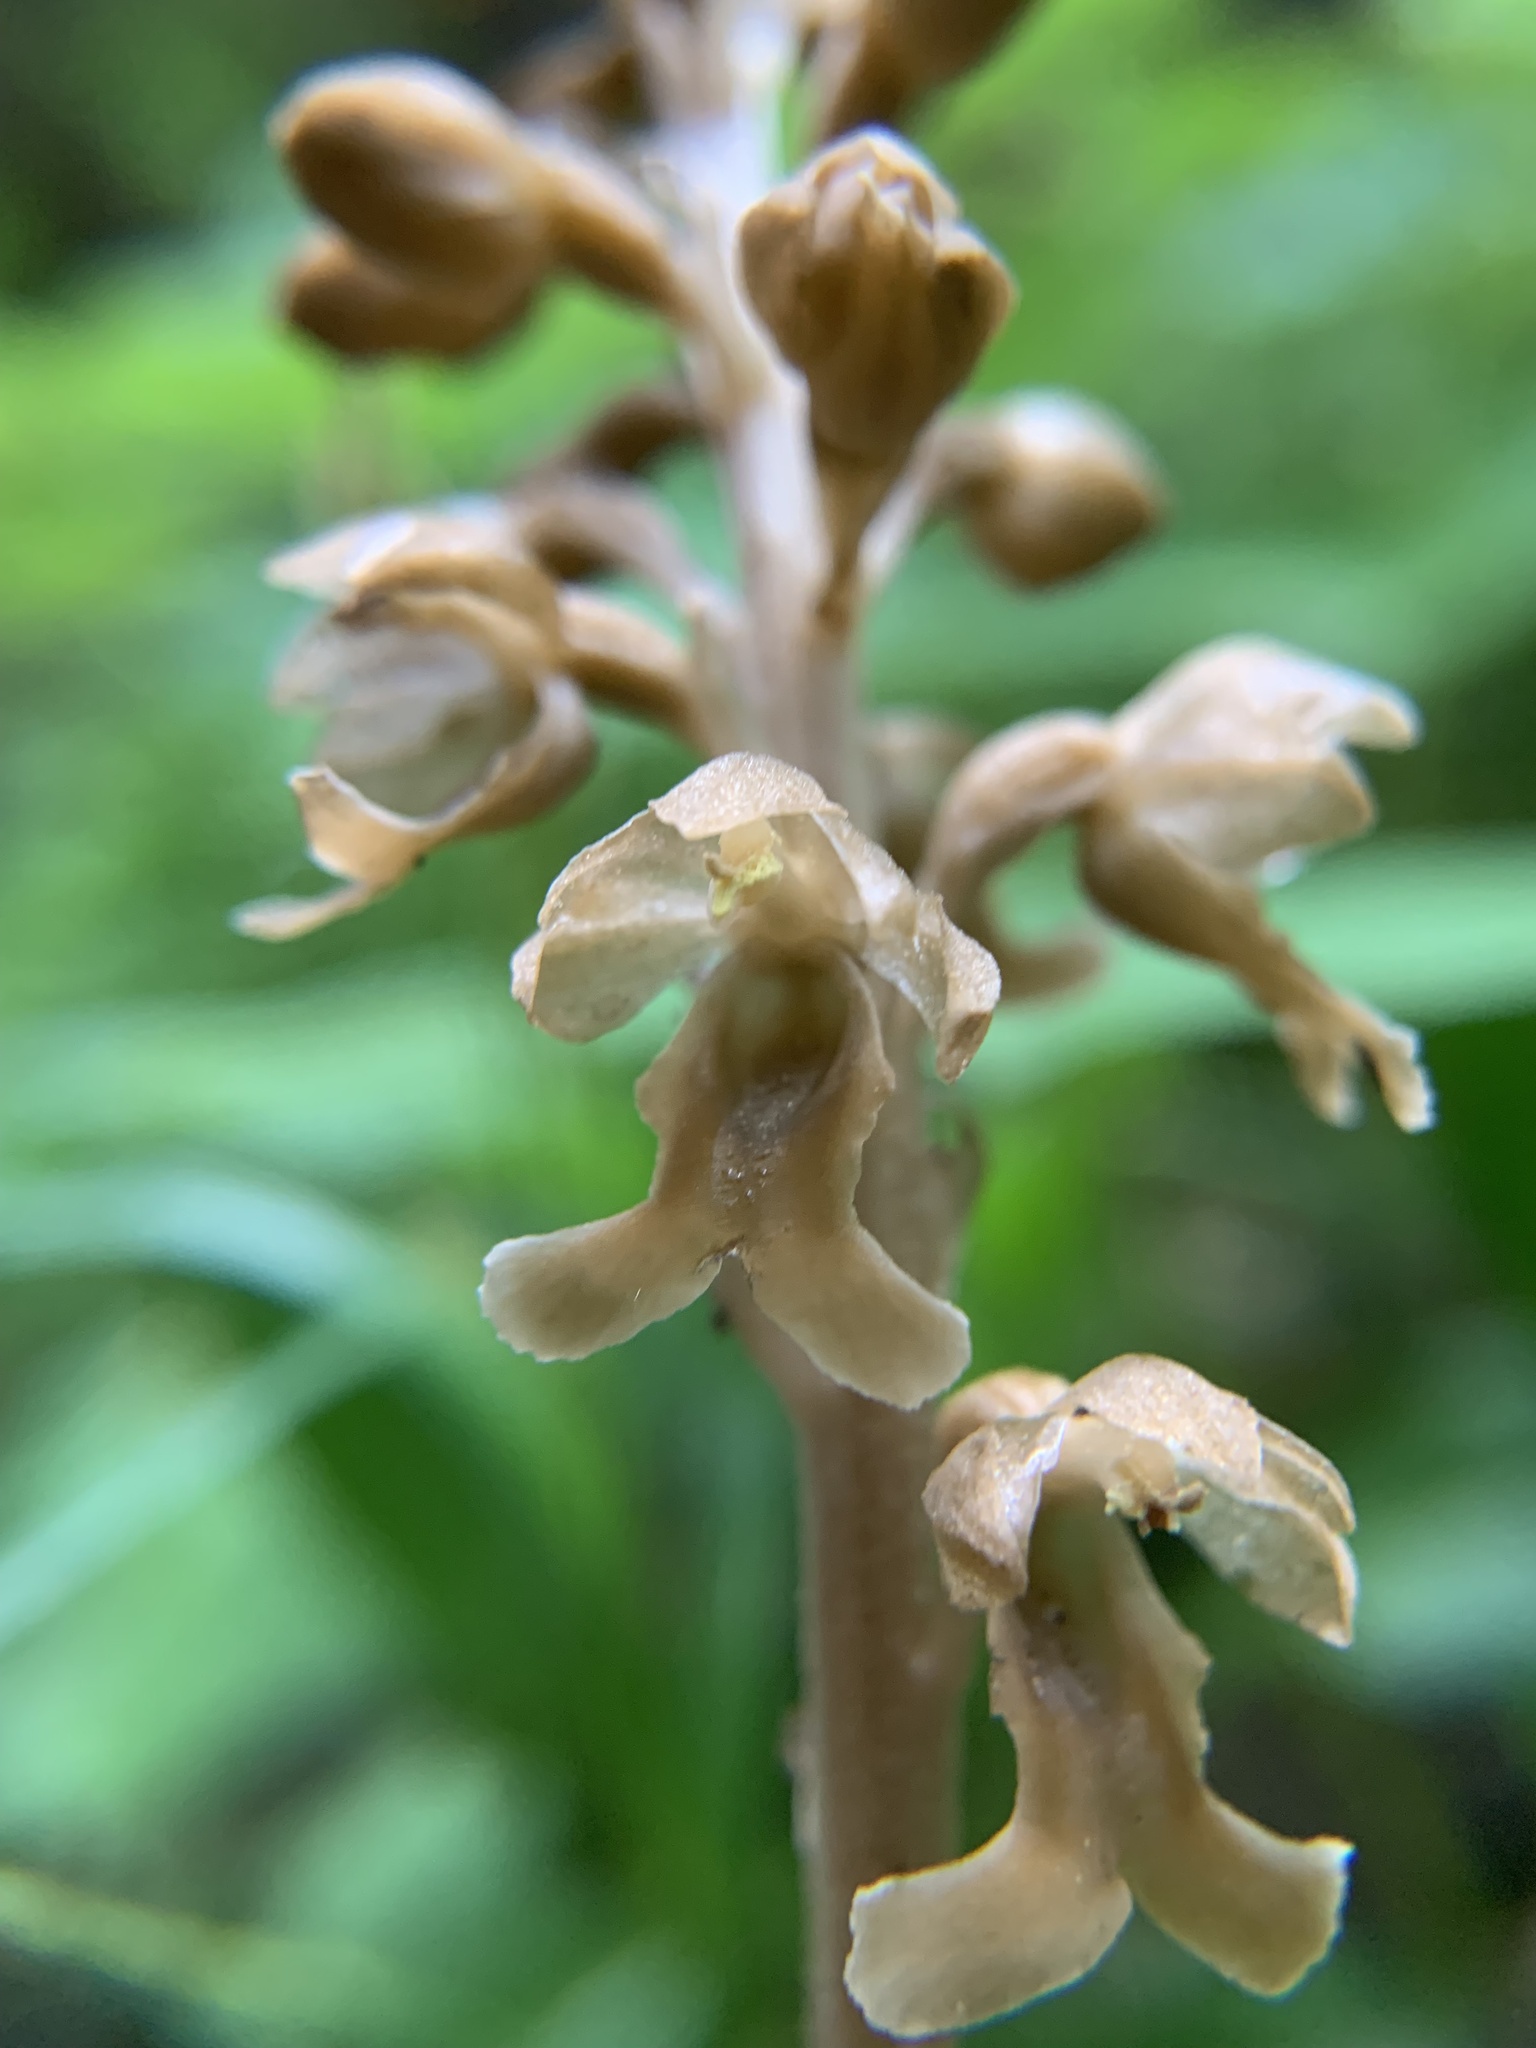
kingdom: Plantae
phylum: Tracheophyta
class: Liliopsida
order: Asparagales
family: Orchidaceae
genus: Neottia
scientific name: Neottia nidus-avis
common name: Bird's-nest orchid
